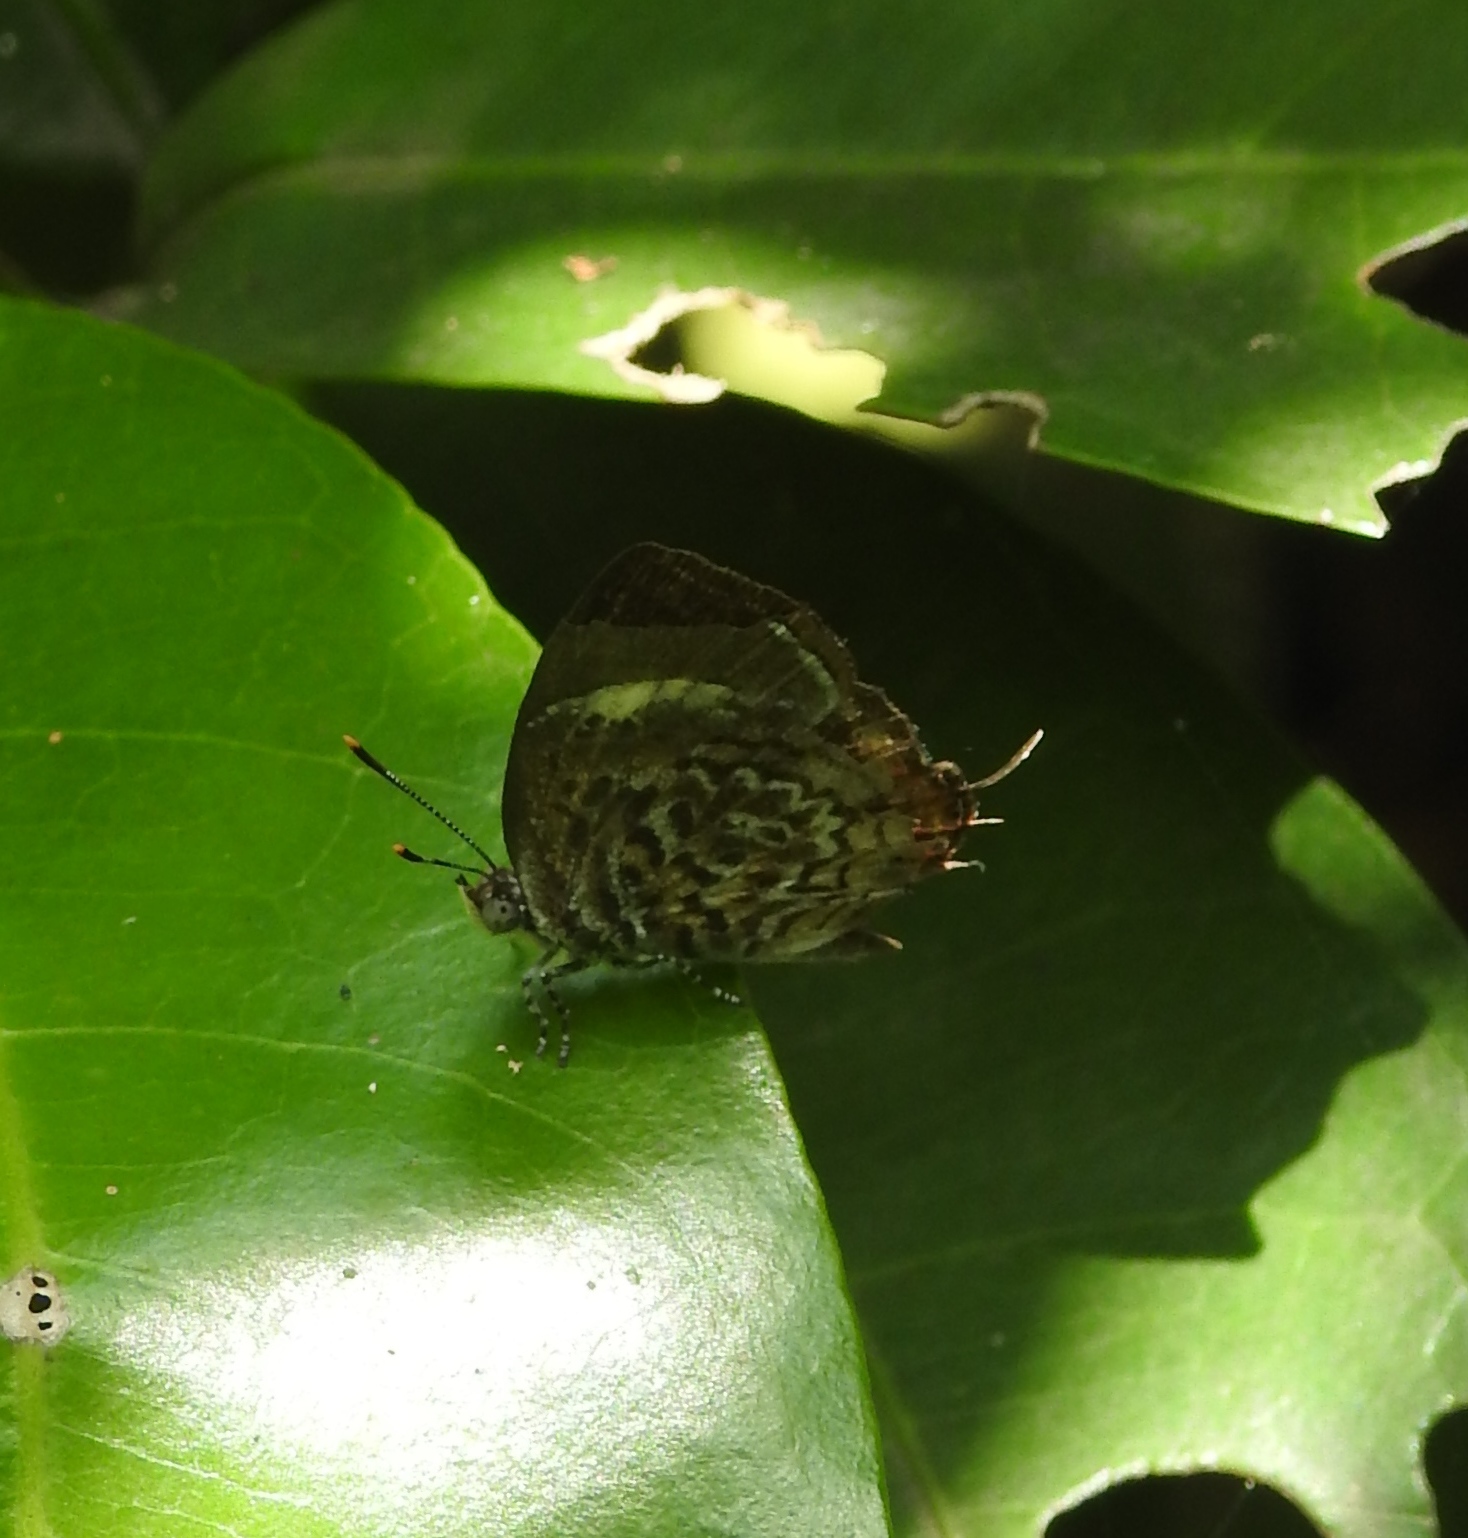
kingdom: Animalia
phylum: Arthropoda
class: Insecta
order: Lepidoptera
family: Lycaenidae
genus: Rathinda
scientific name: Rathinda amor
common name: Monkey puzzle
